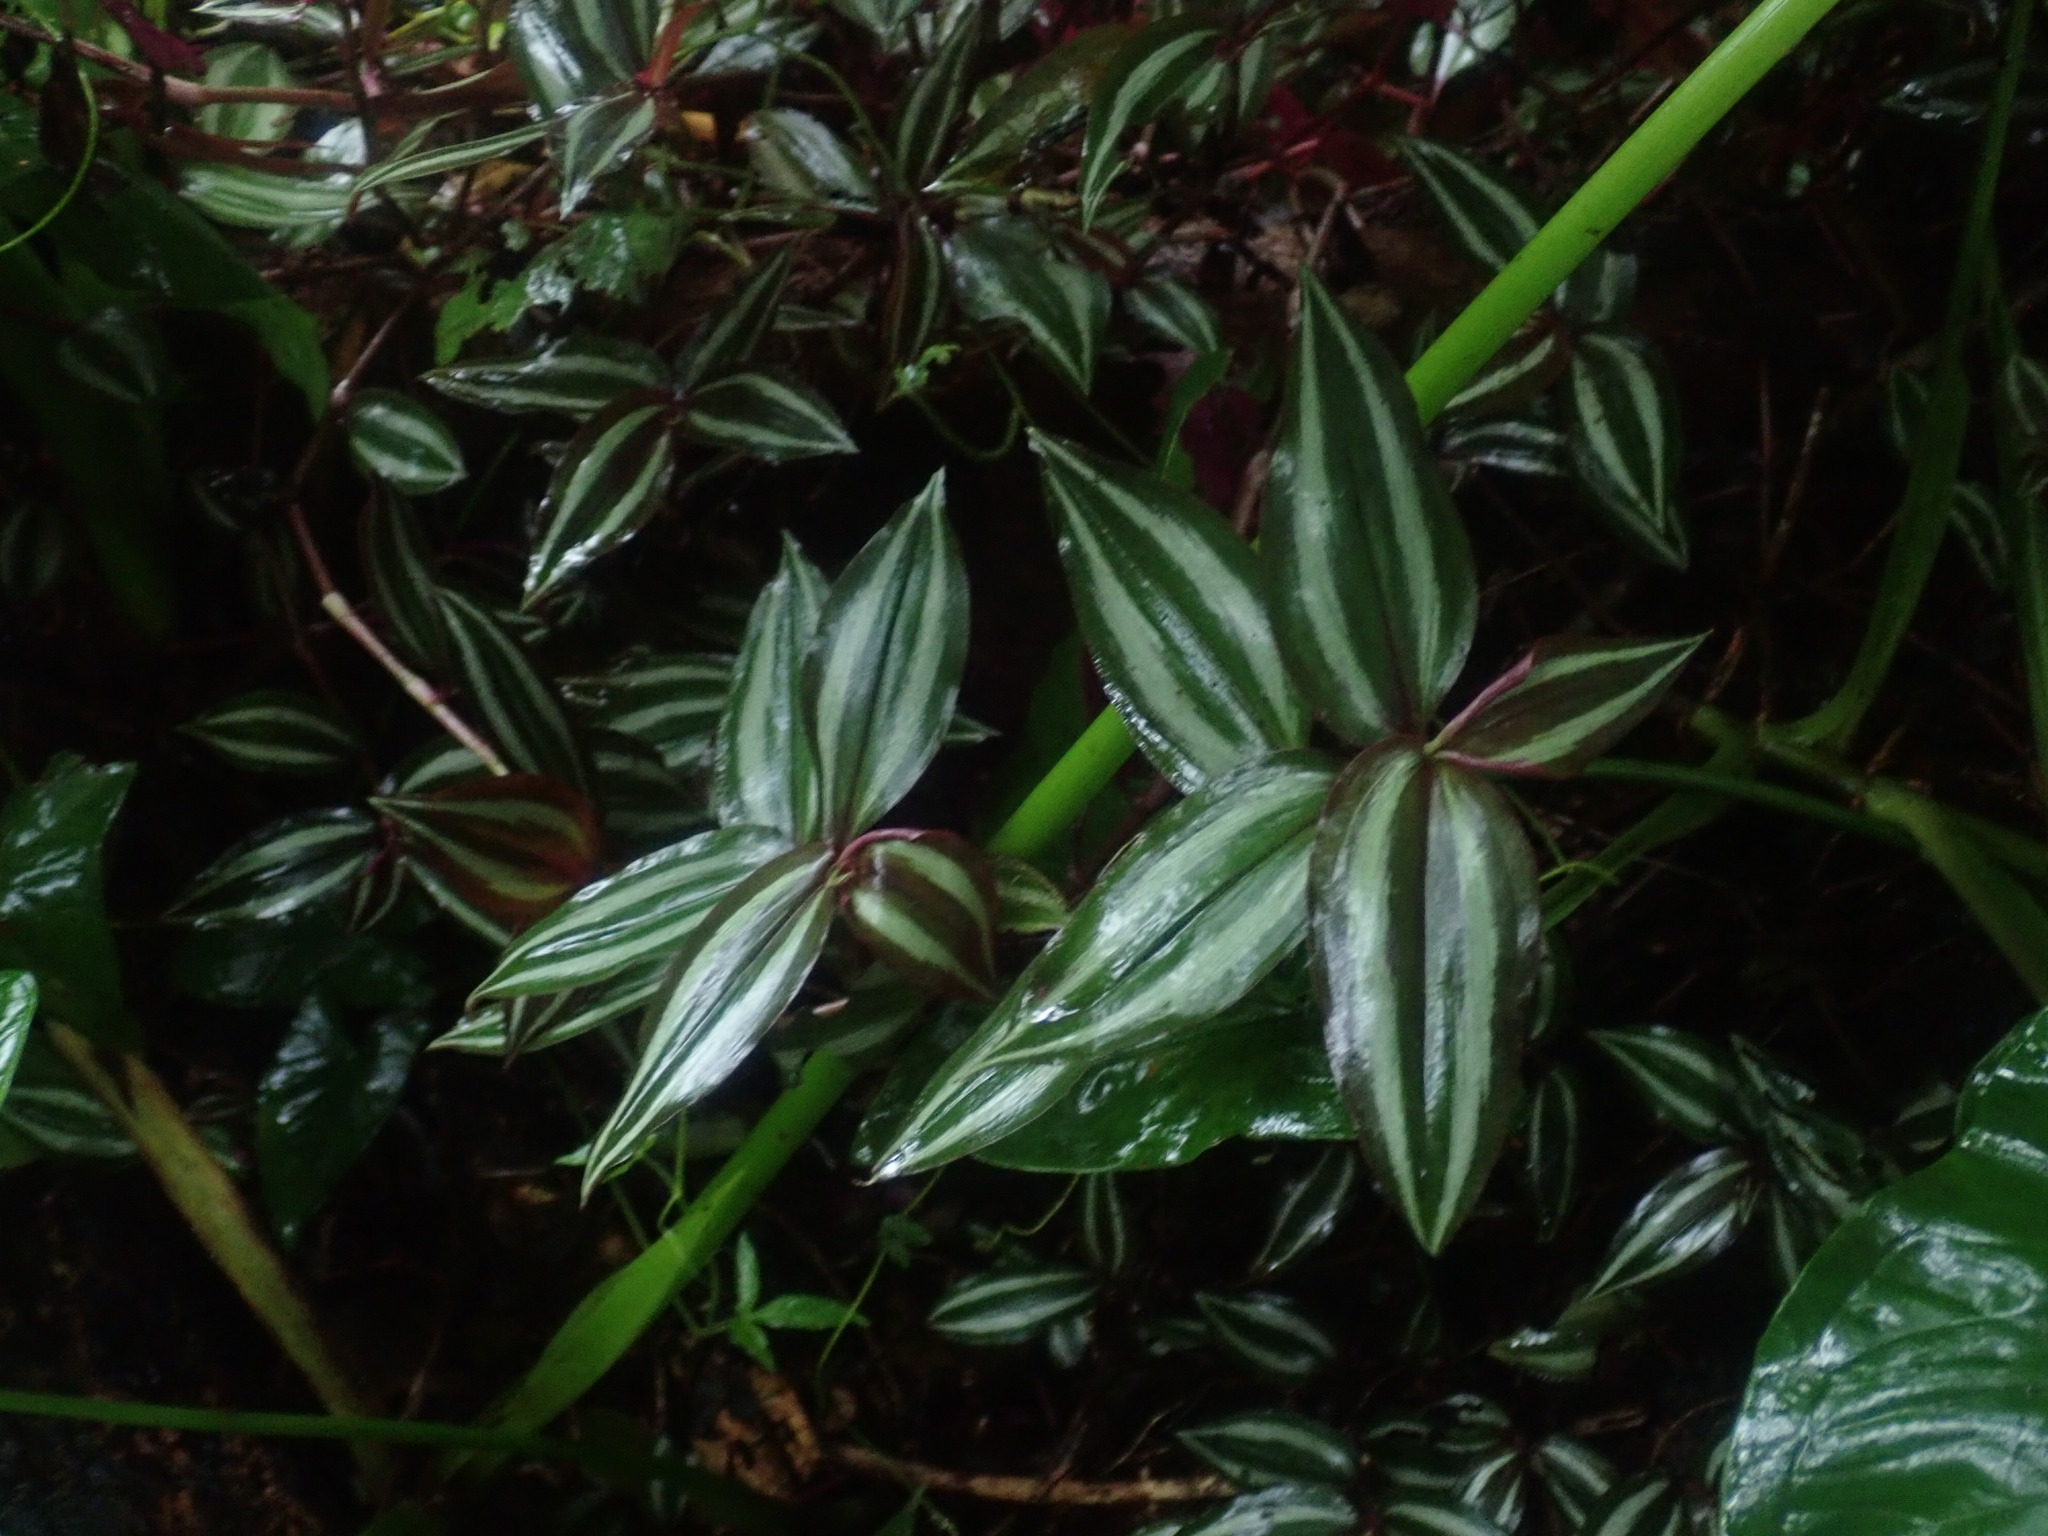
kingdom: Plantae
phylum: Tracheophyta
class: Liliopsida
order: Commelinales
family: Commelinaceae
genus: Tradescantia
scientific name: Tradescantia zebrina
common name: Inchplant
